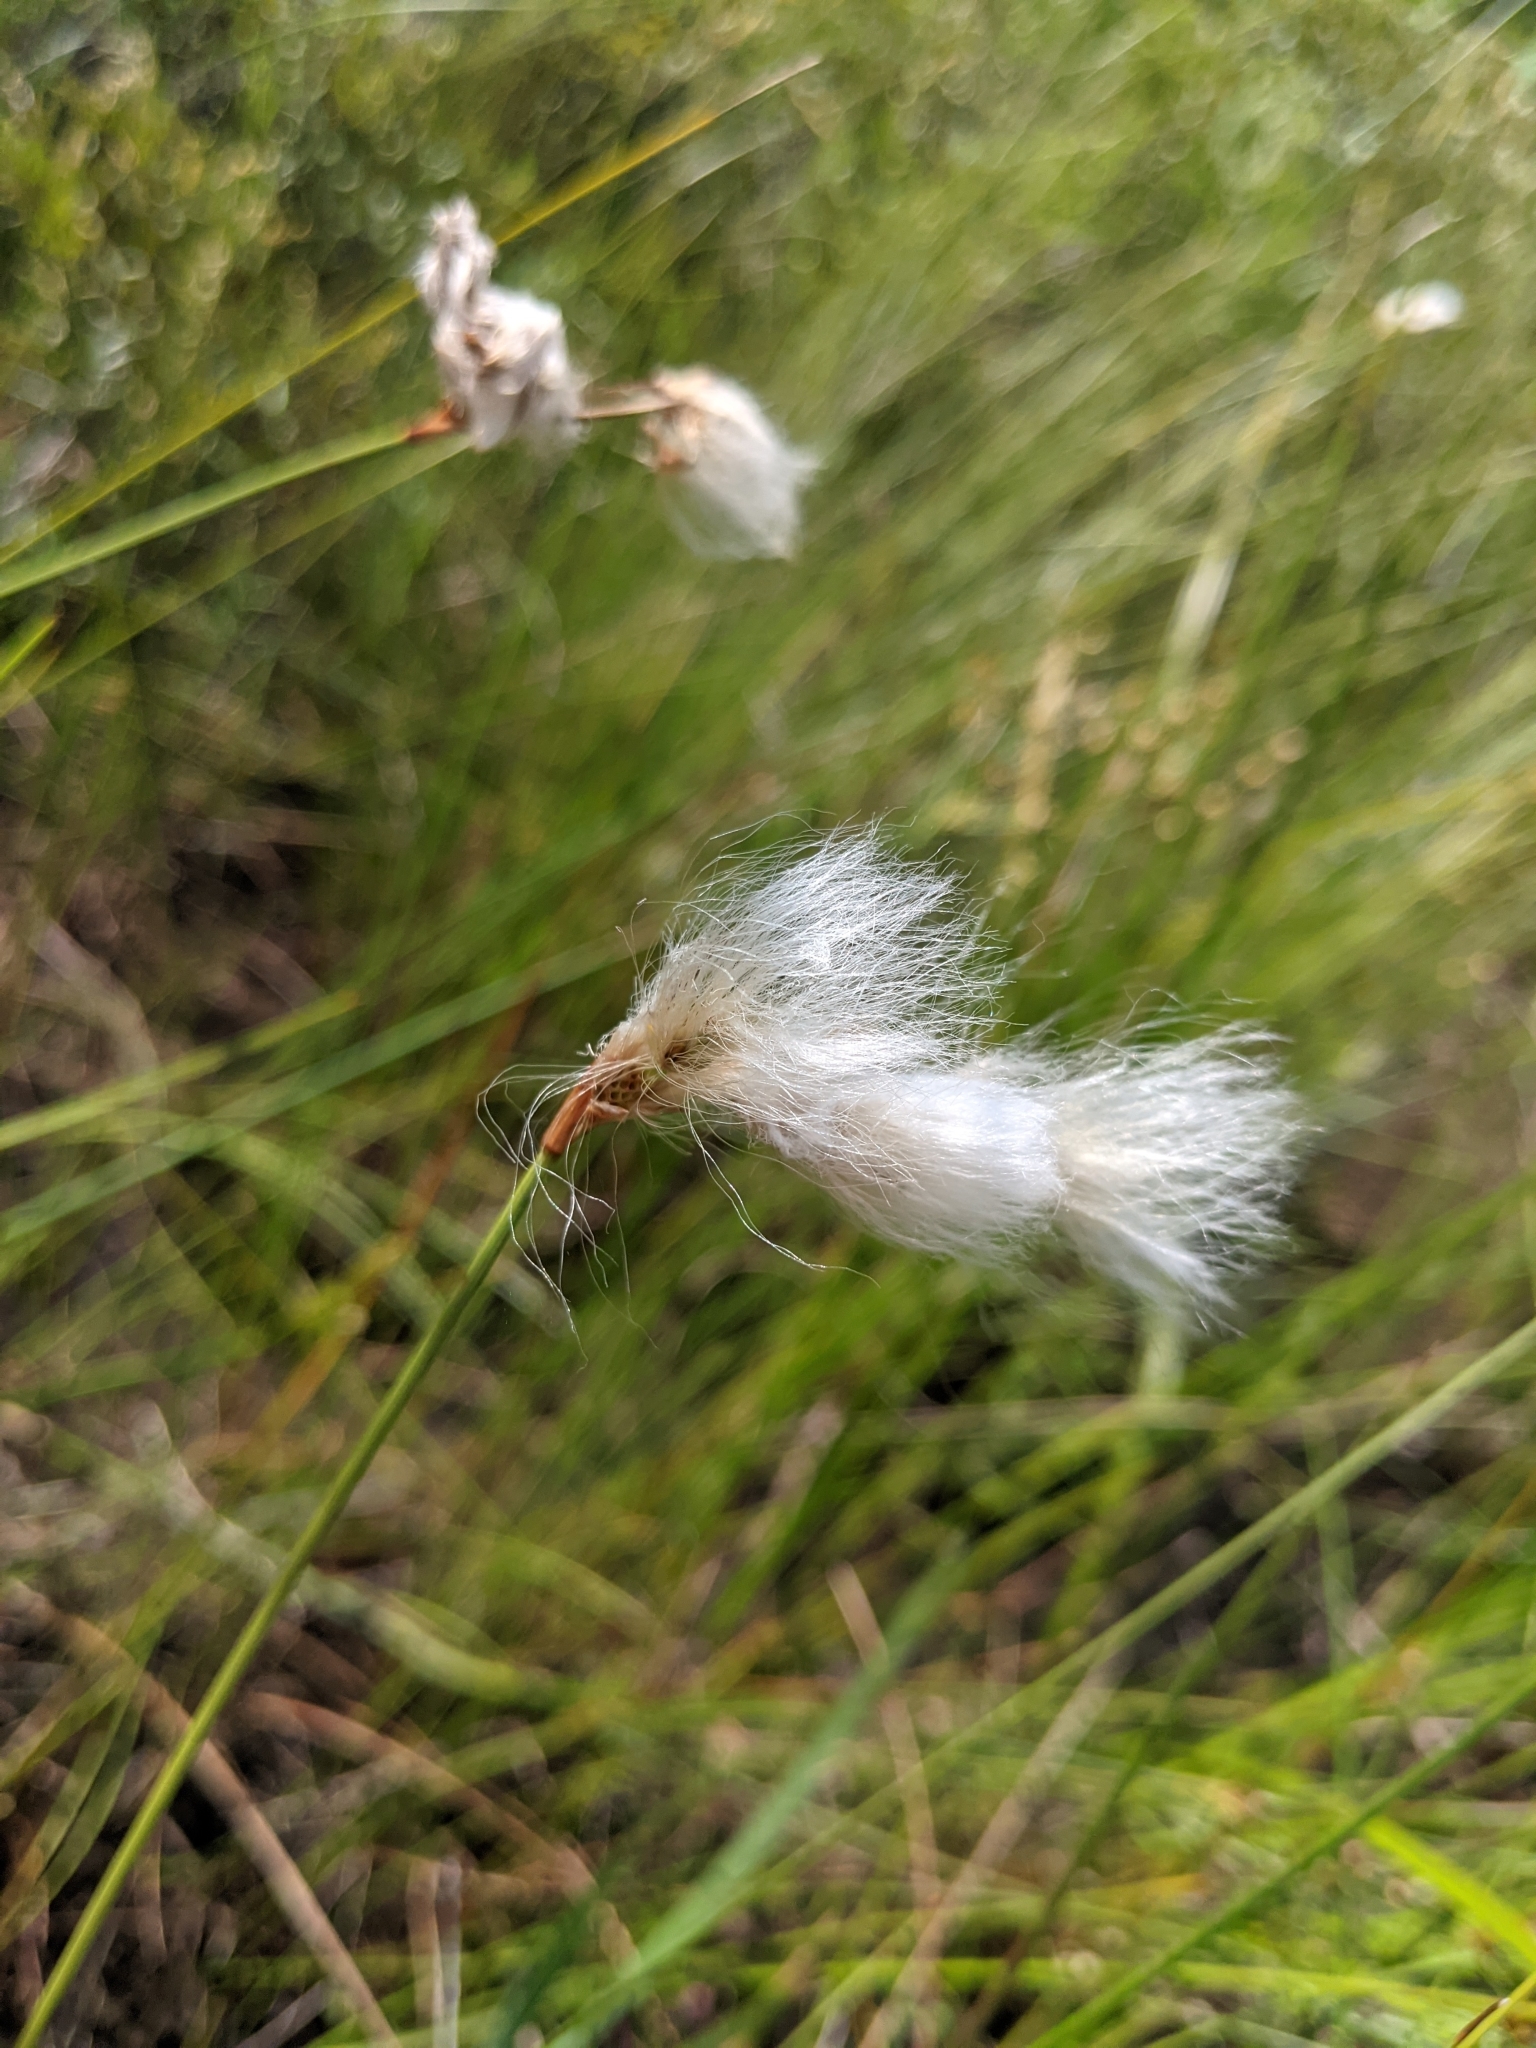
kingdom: Plantae
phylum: Tracheophyta
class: Liliopsida
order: Poales
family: Cyperaceae
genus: Eriophorum
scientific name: Eriophorum tenellum
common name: Few-nerved cottongrass
